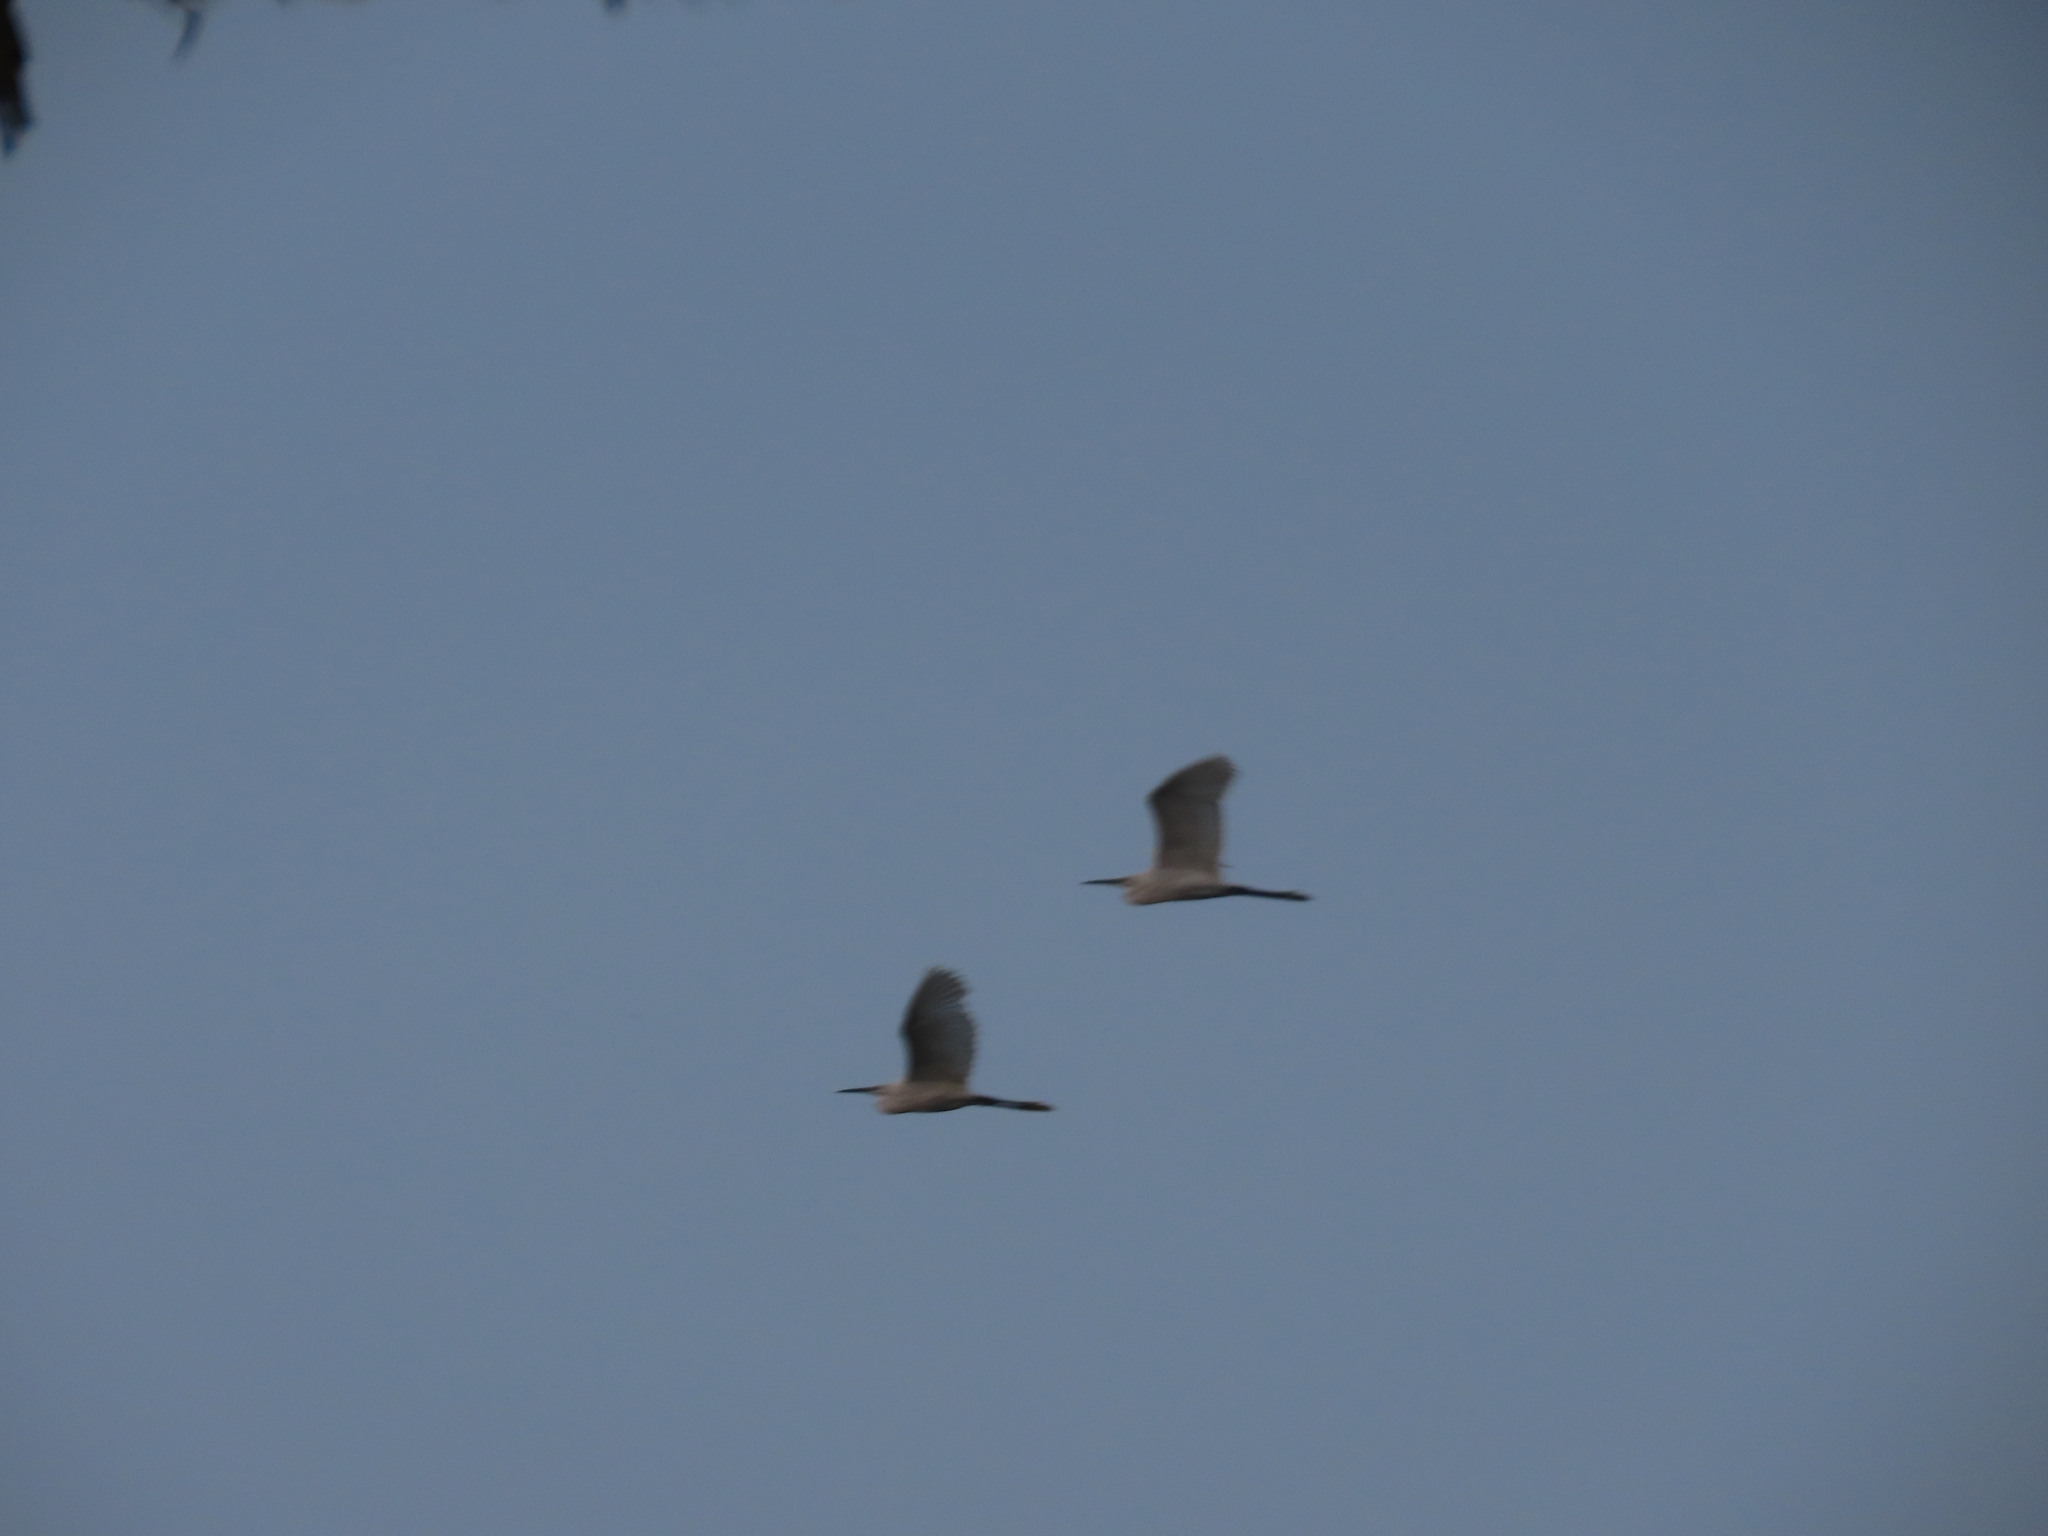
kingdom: Animalia
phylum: Chordata
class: Aves
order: Pelecaniformes
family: Ardeidae
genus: Egretta
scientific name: Egretta garzetta
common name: Little egret
